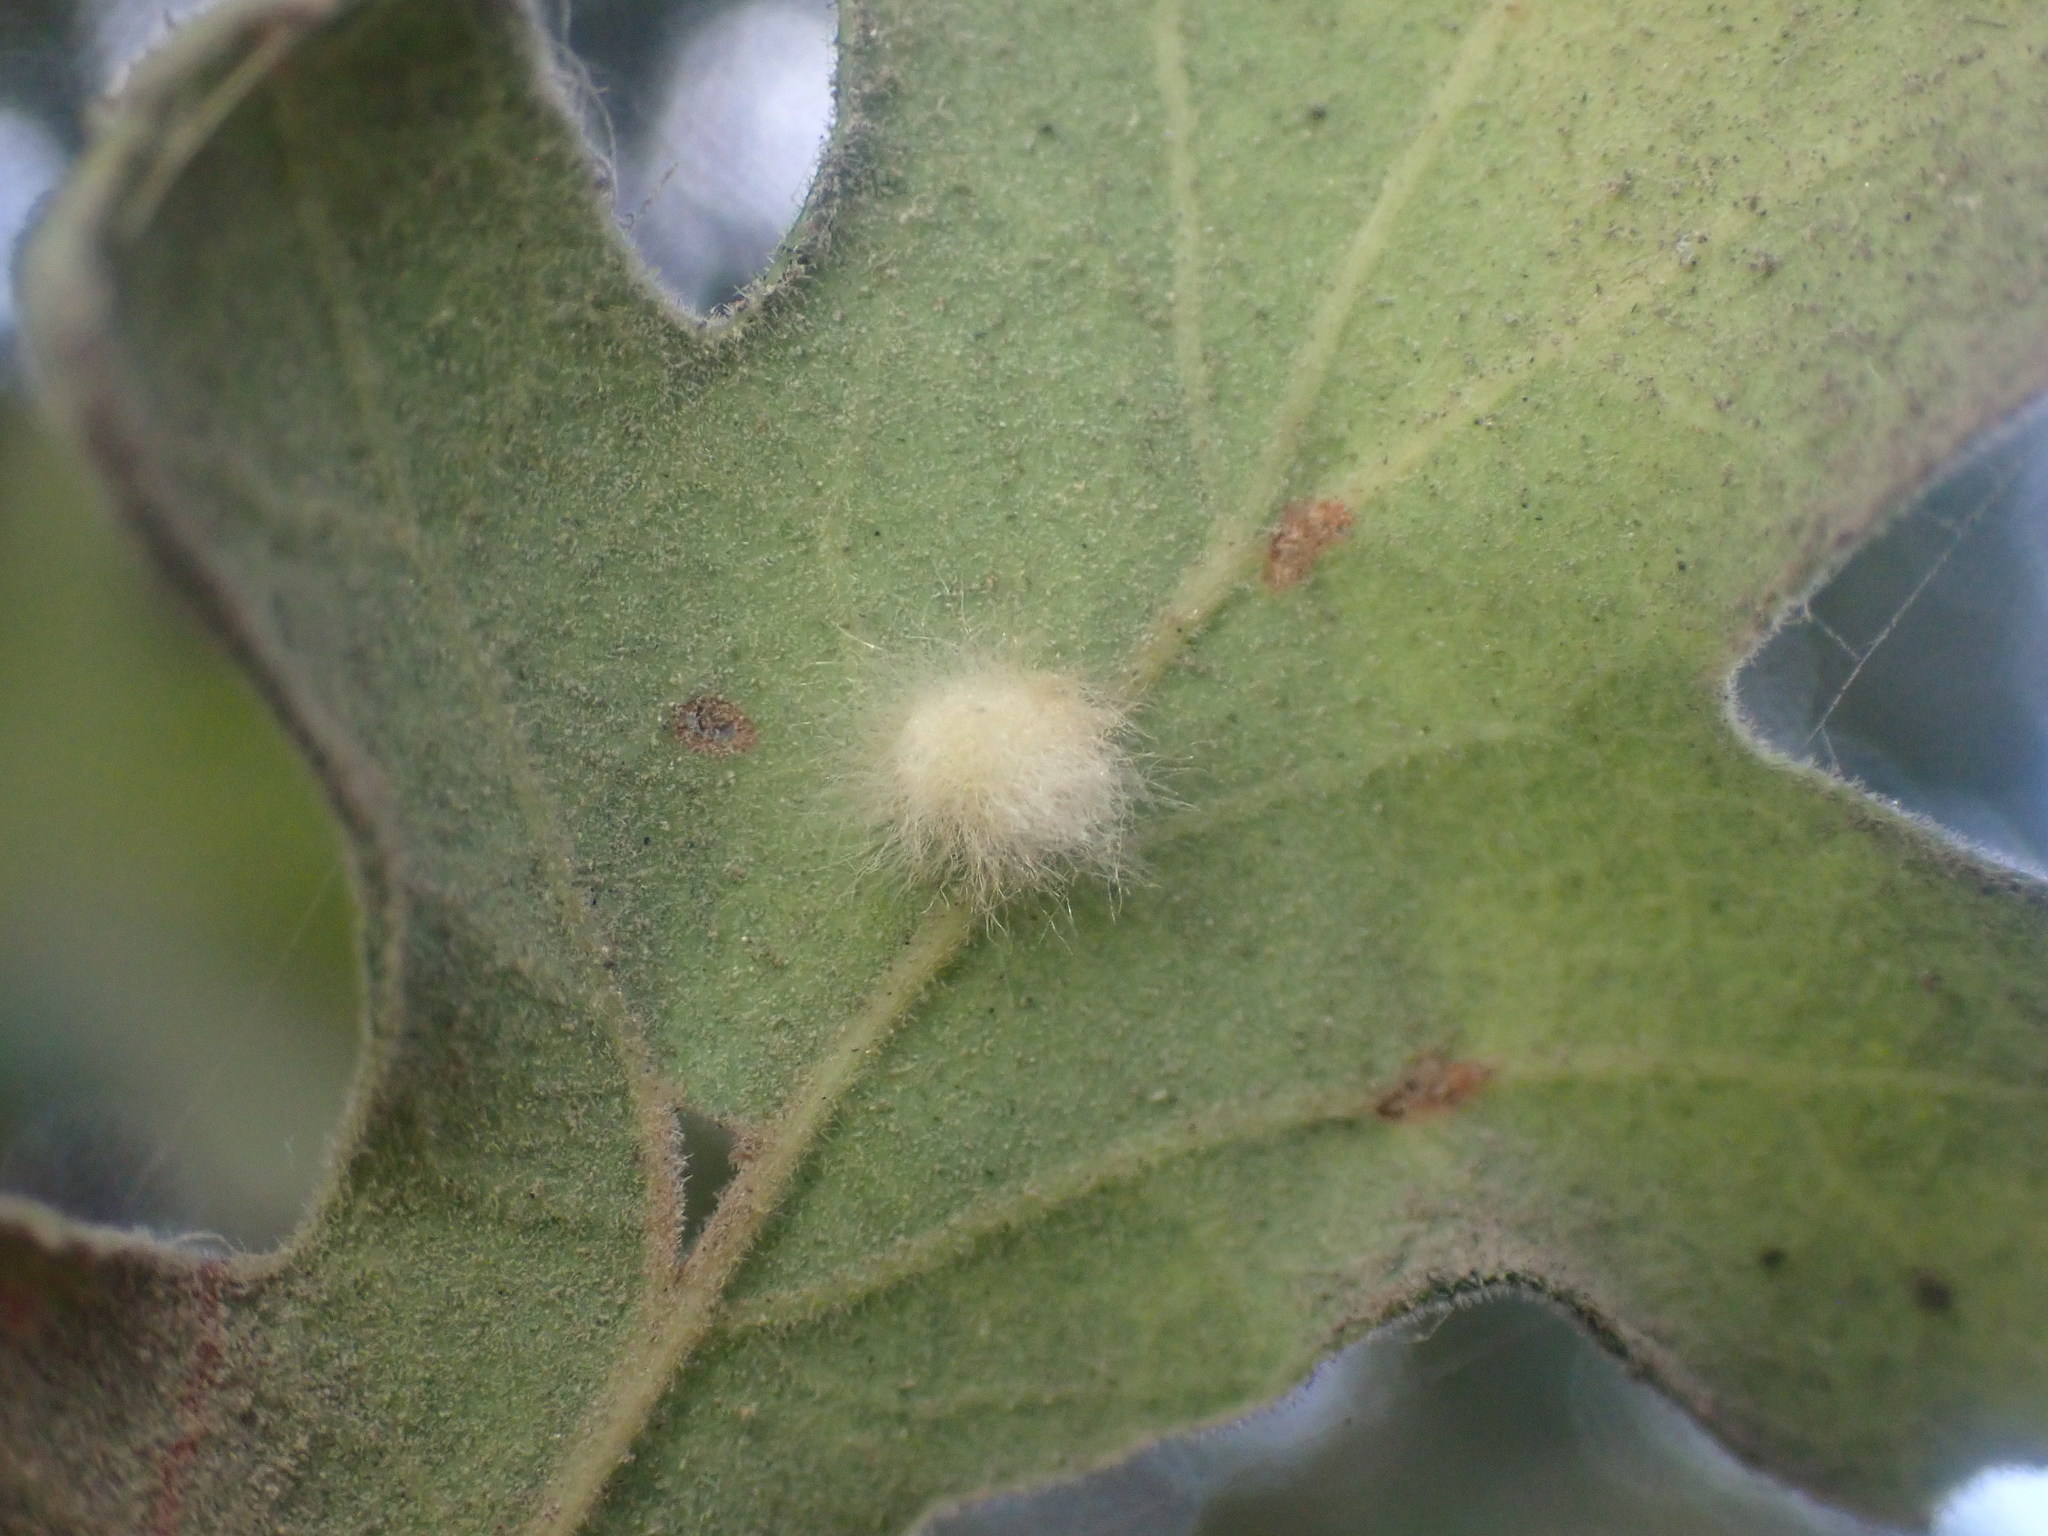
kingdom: Animalia
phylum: Arthropoda
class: Insecta
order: Hymenoptera
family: Cynipidae
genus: Andricus
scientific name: Andricus Druon fullawayi
